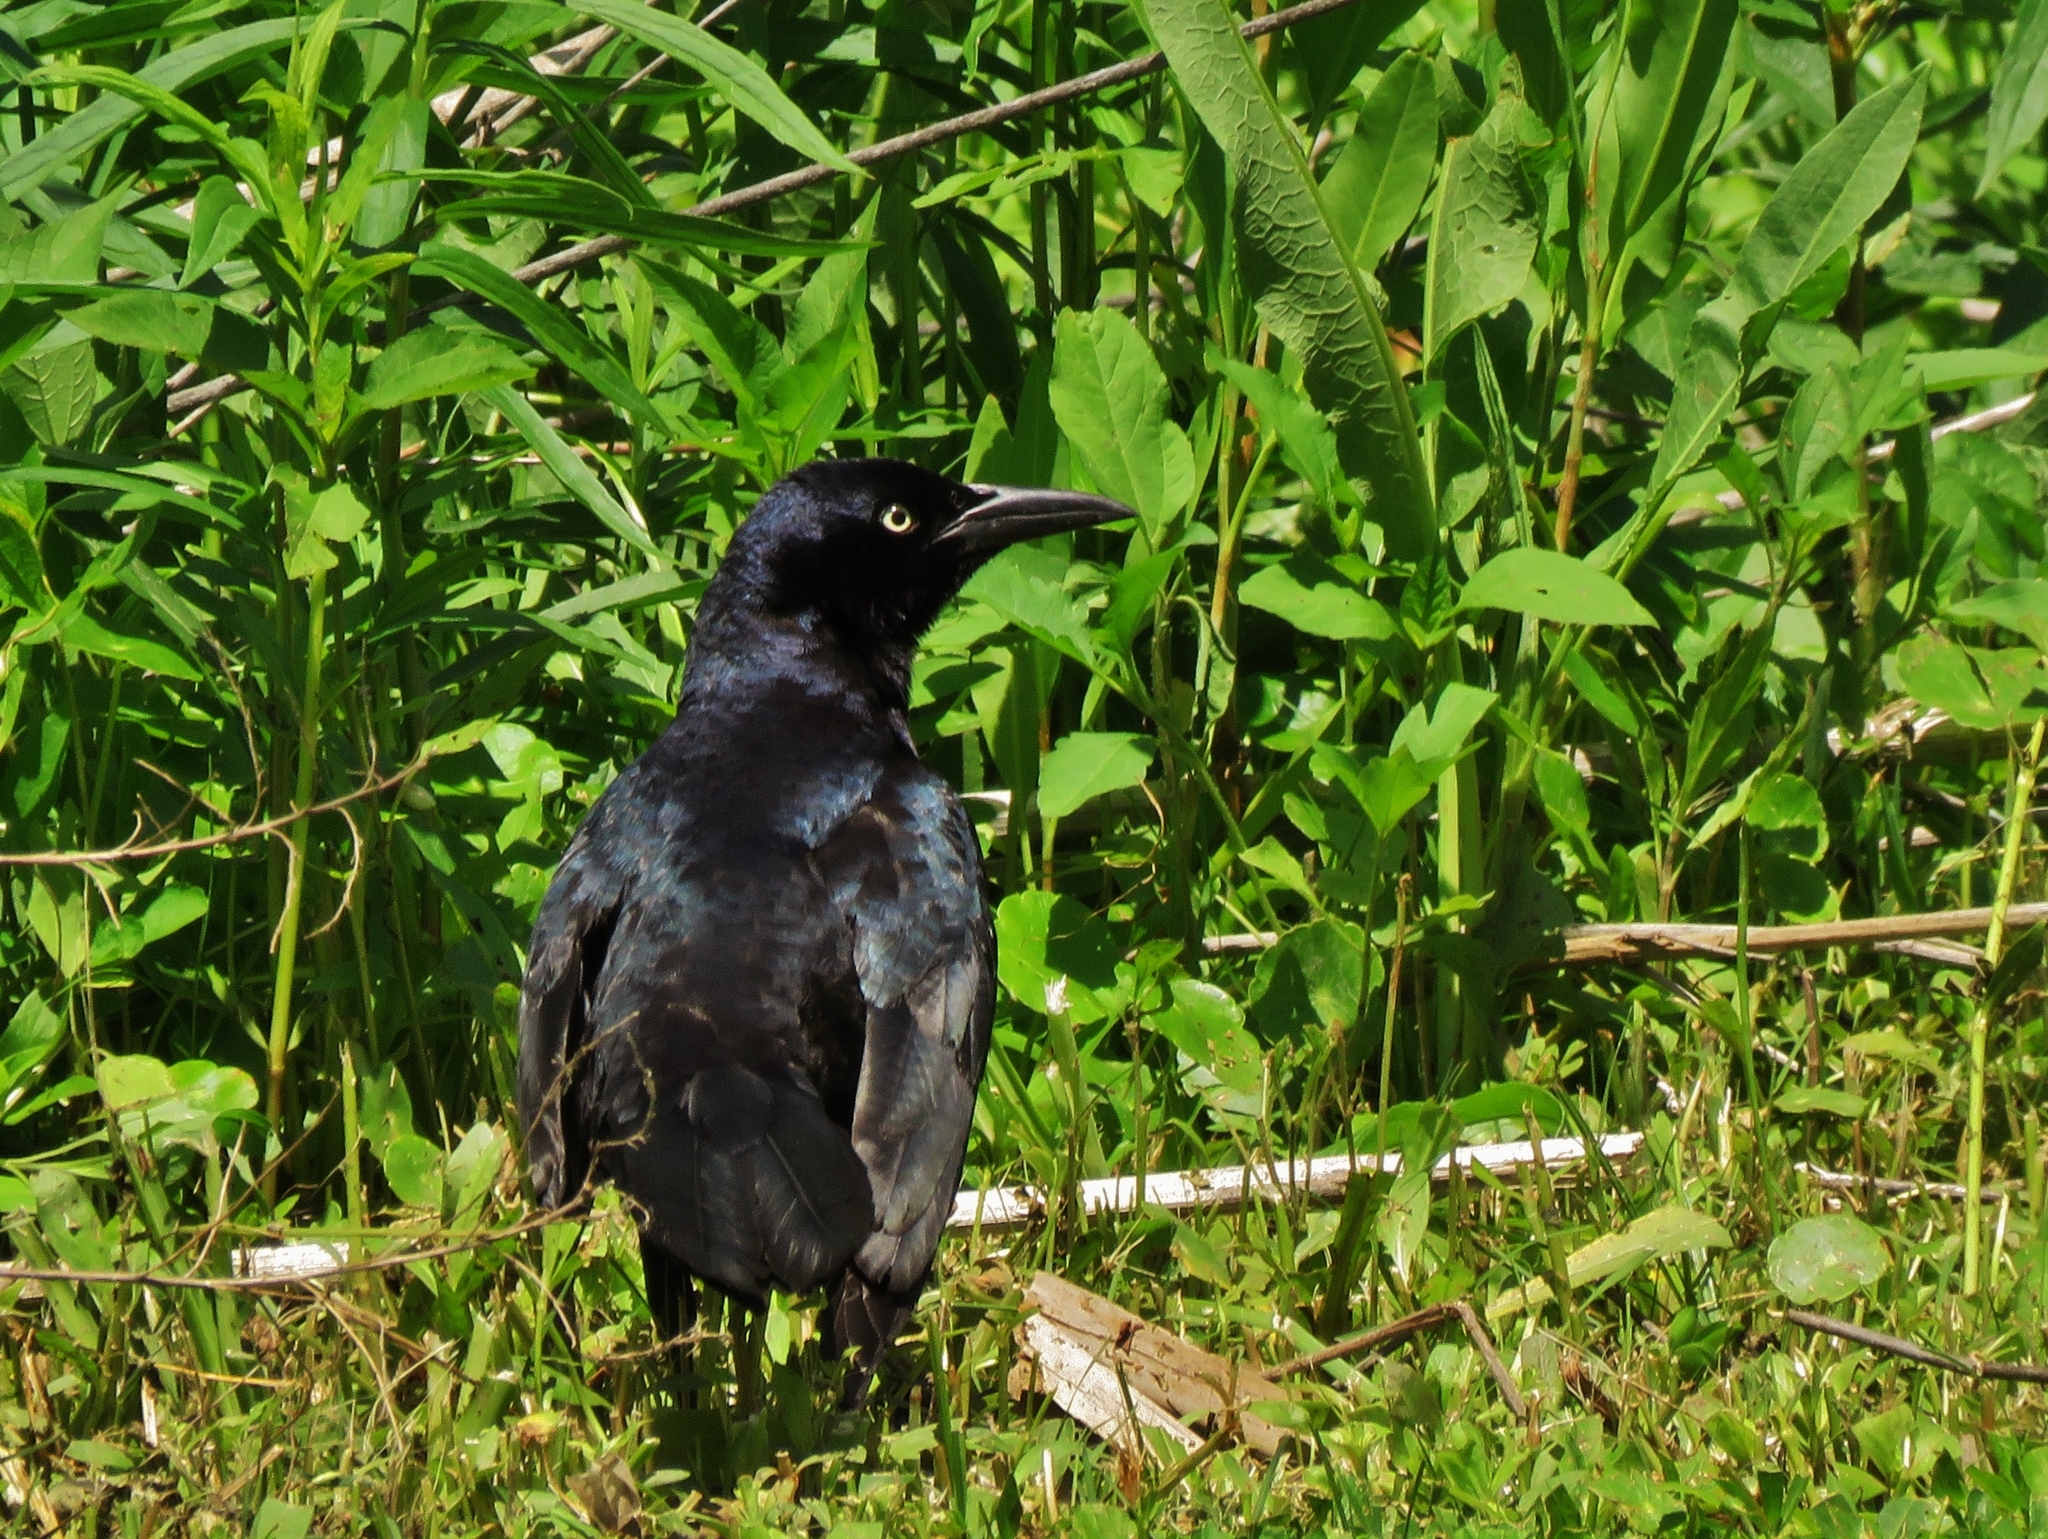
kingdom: Animalia
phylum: Chordata
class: Aves
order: Passeriformes
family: Icteridae
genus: Quiscalus
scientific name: Quiscalus mexicanus
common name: Great-tailed grackle
